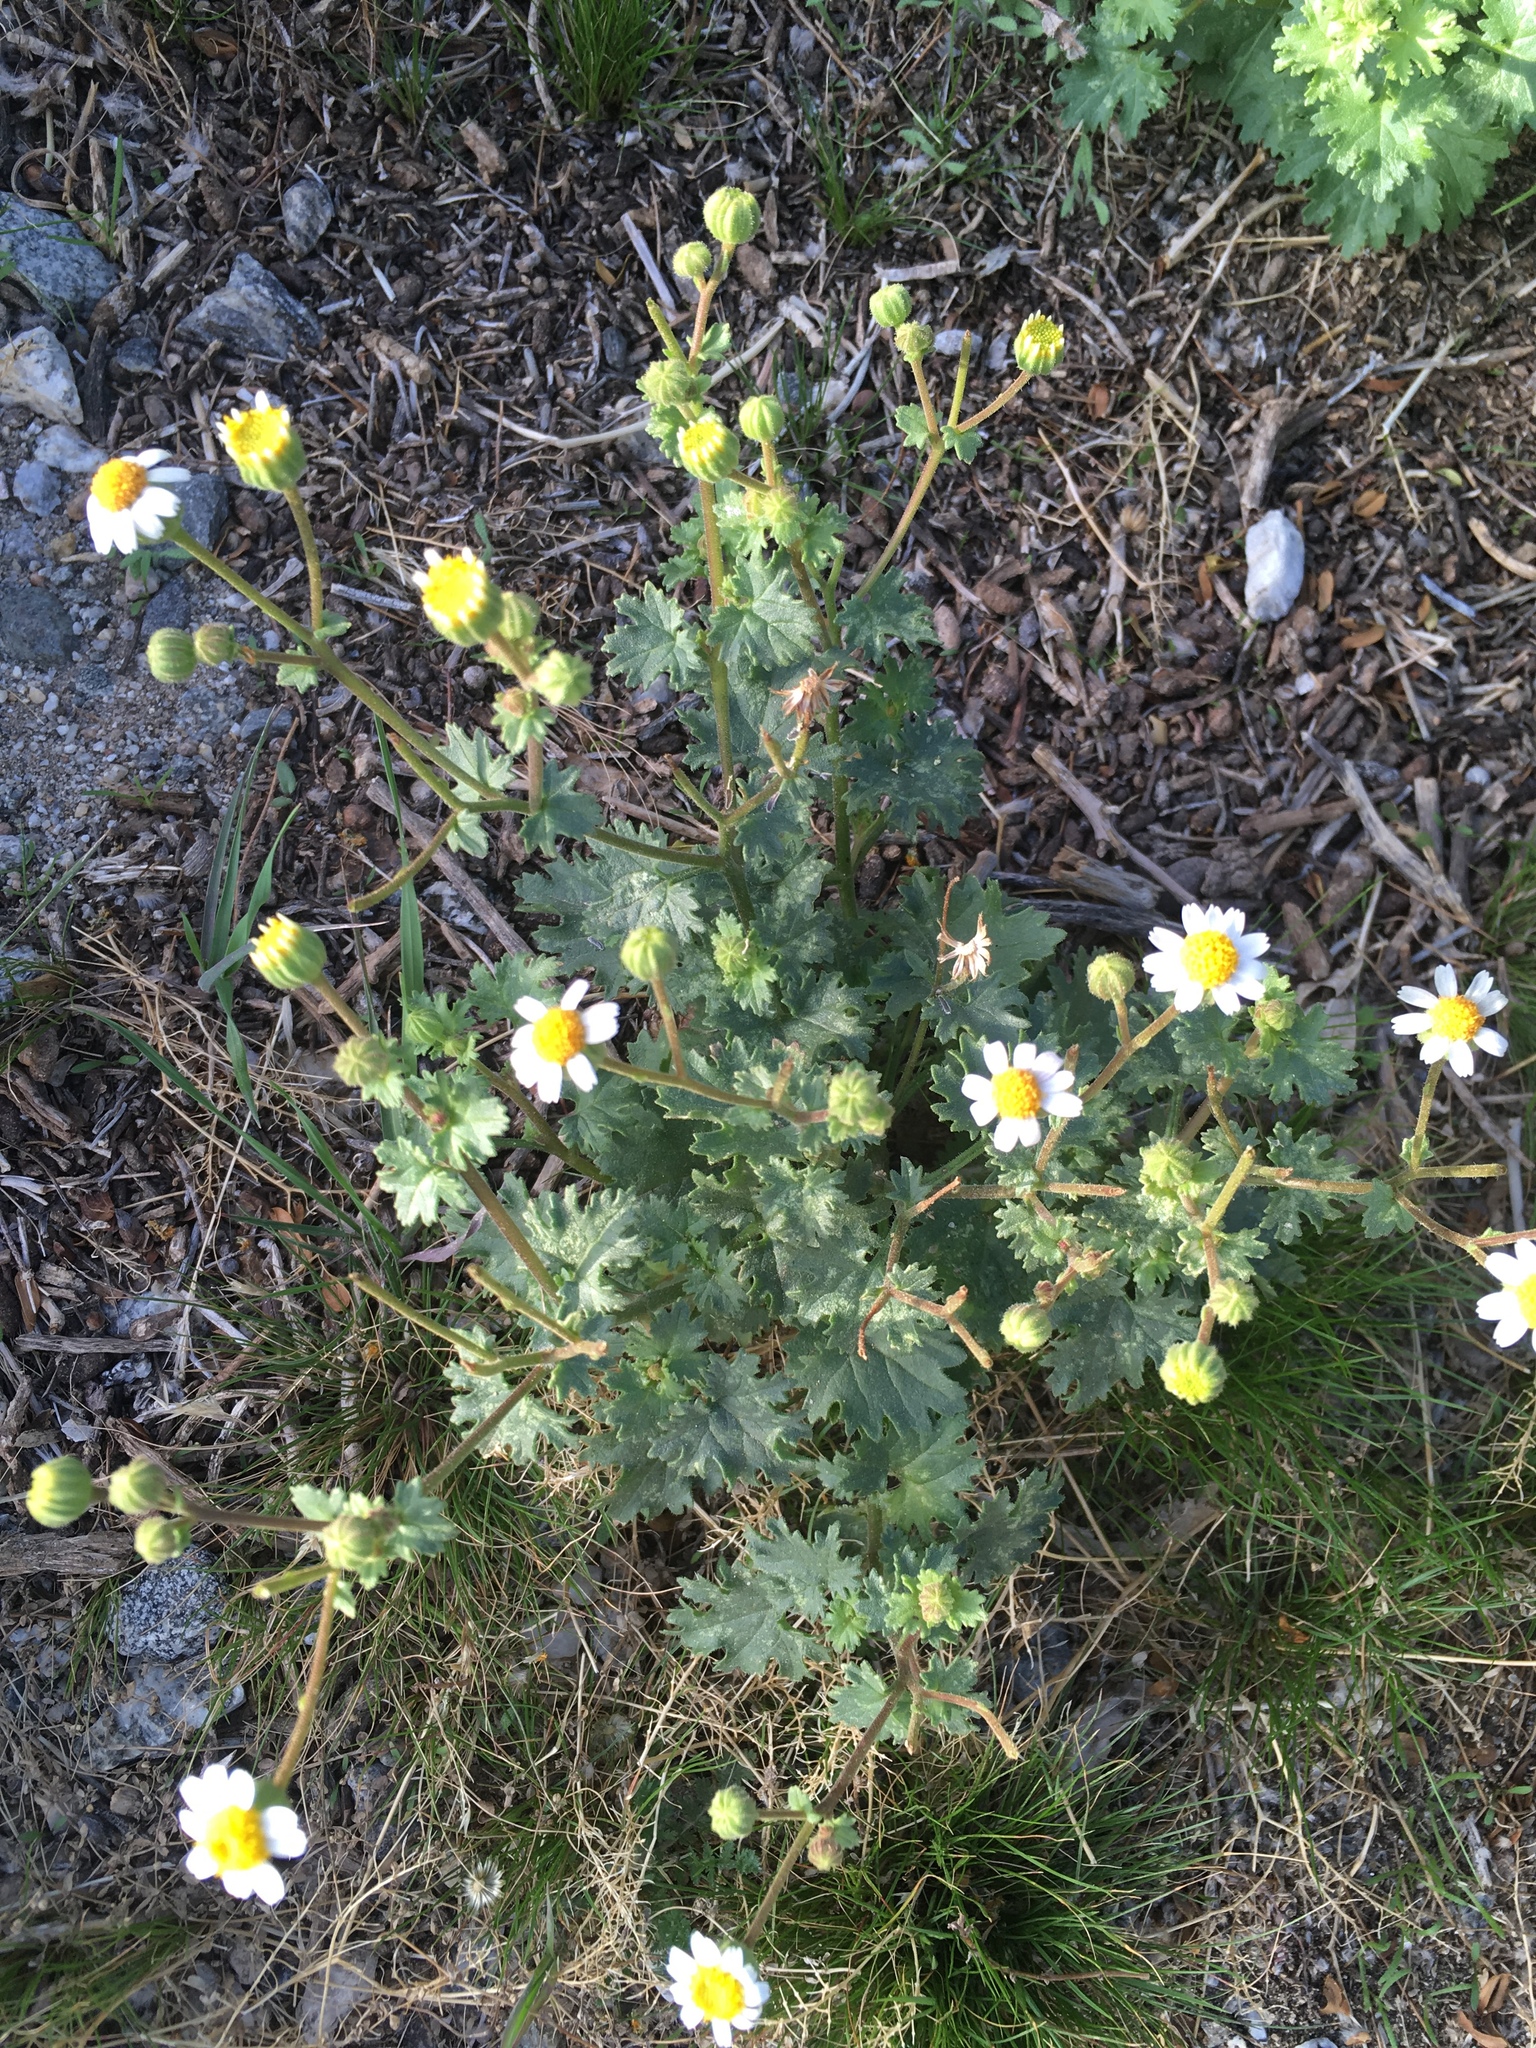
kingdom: Plantae
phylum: Tracheophyta
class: Magnoliopsida
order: Asterales
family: Asteraceae
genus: Laphamia
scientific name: Laphamia emoryi
